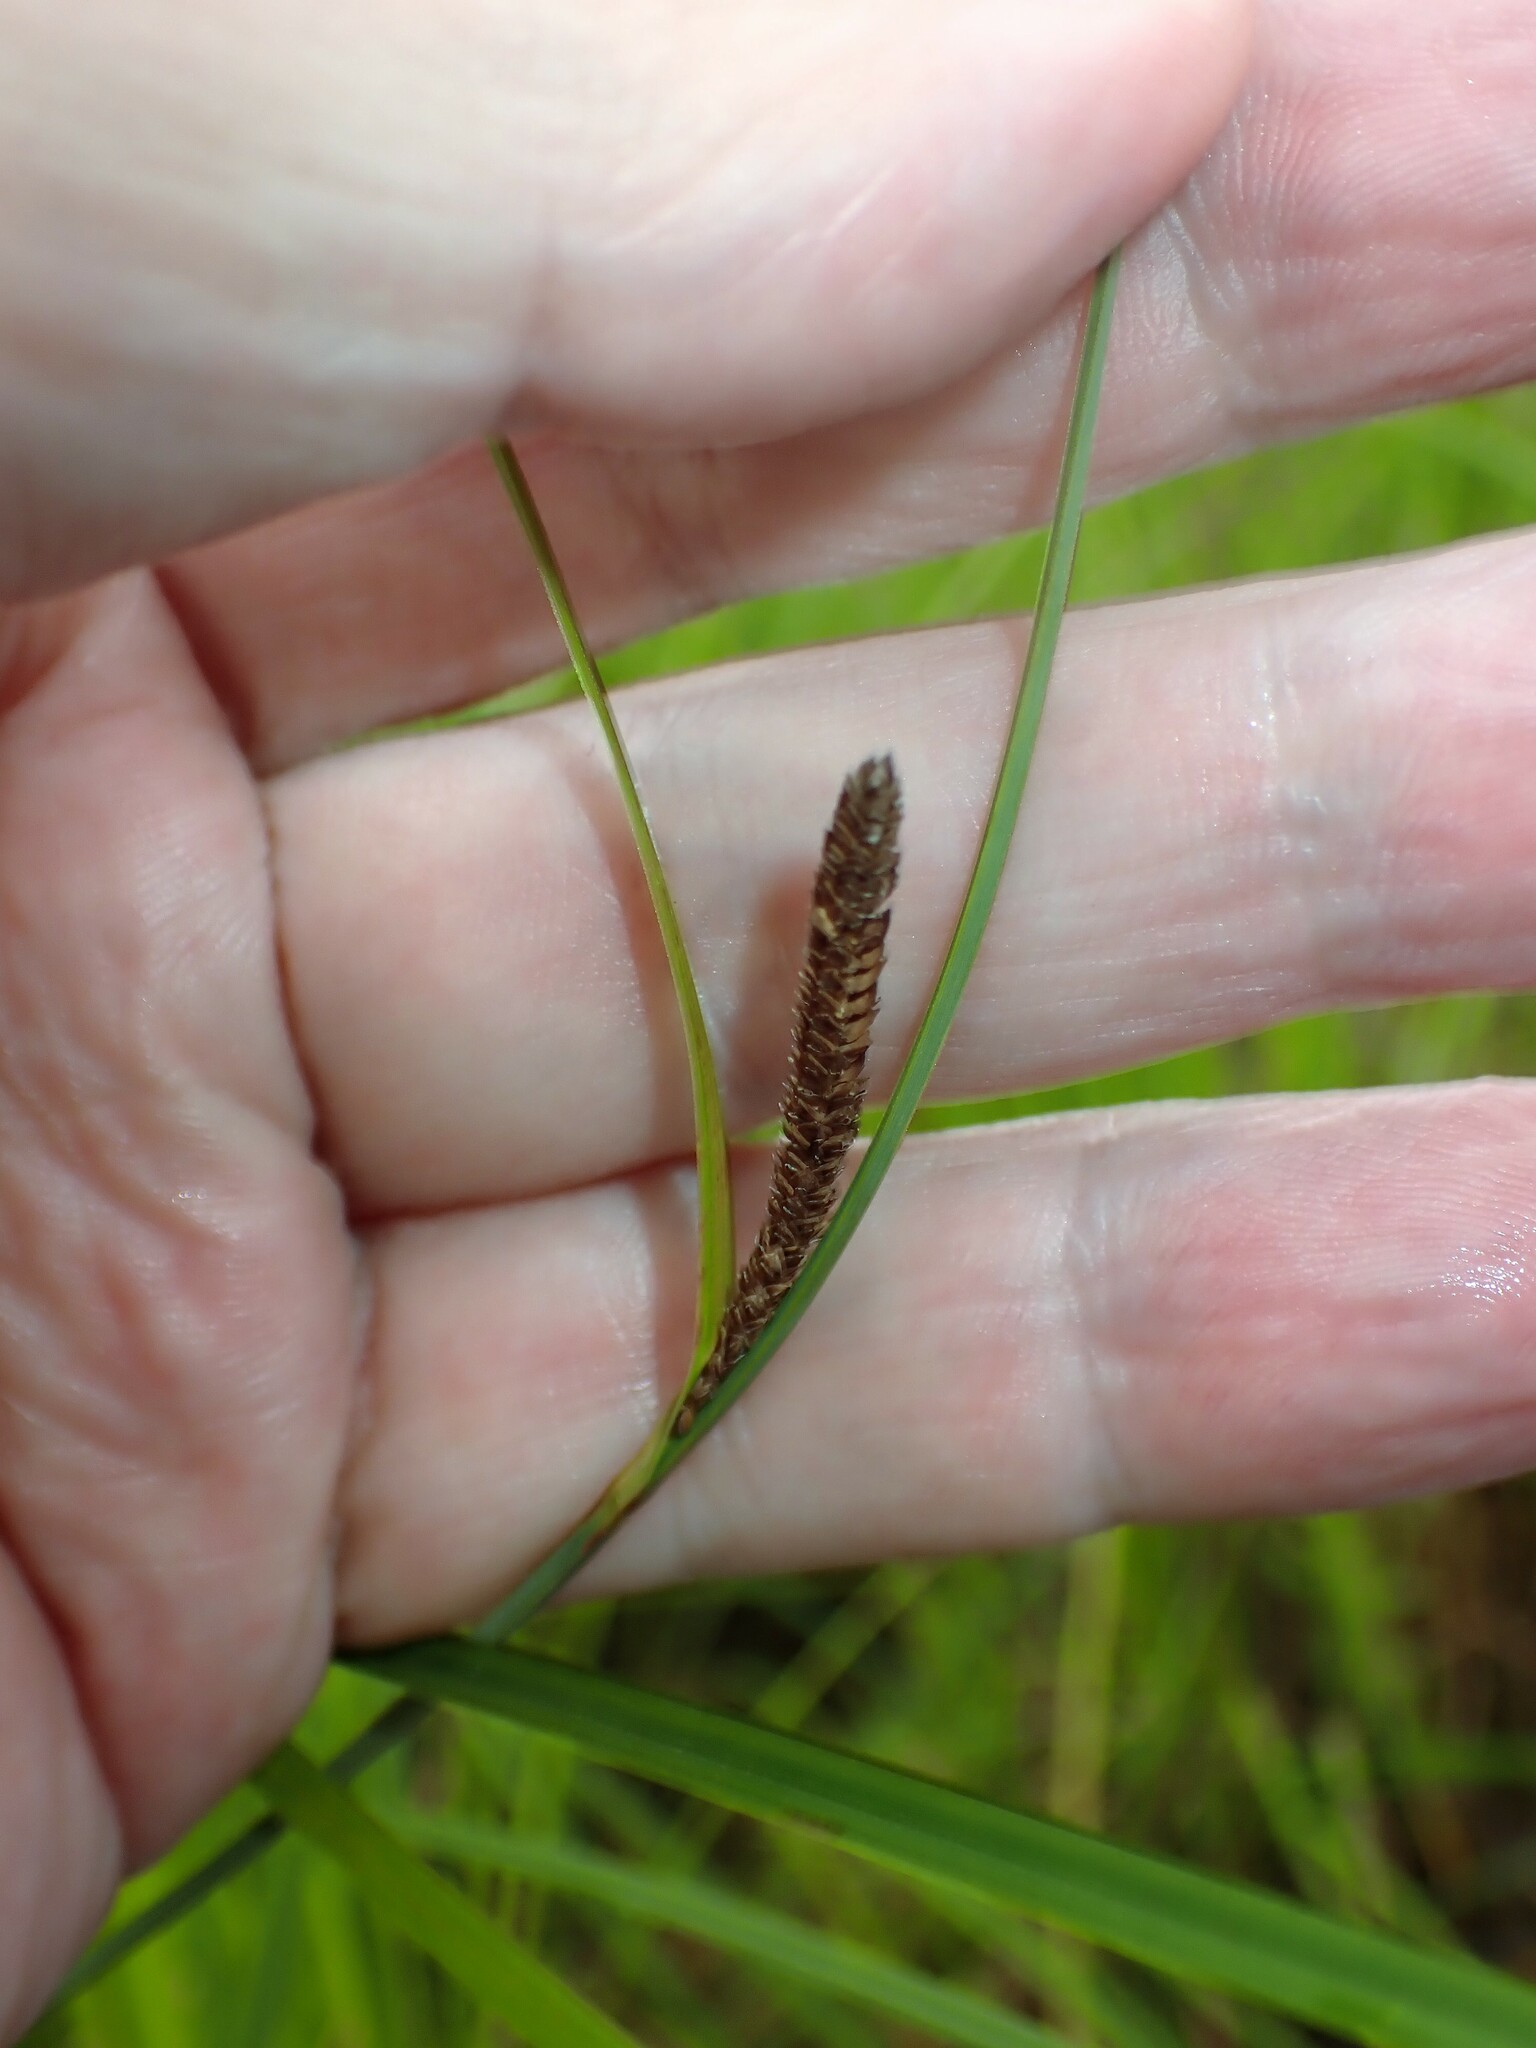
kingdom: Plantae
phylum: Tracheophyta
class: Liliopsida
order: Poales
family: Cyperaceae
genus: Carex
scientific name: Carex stricta
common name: Hummock sedge
